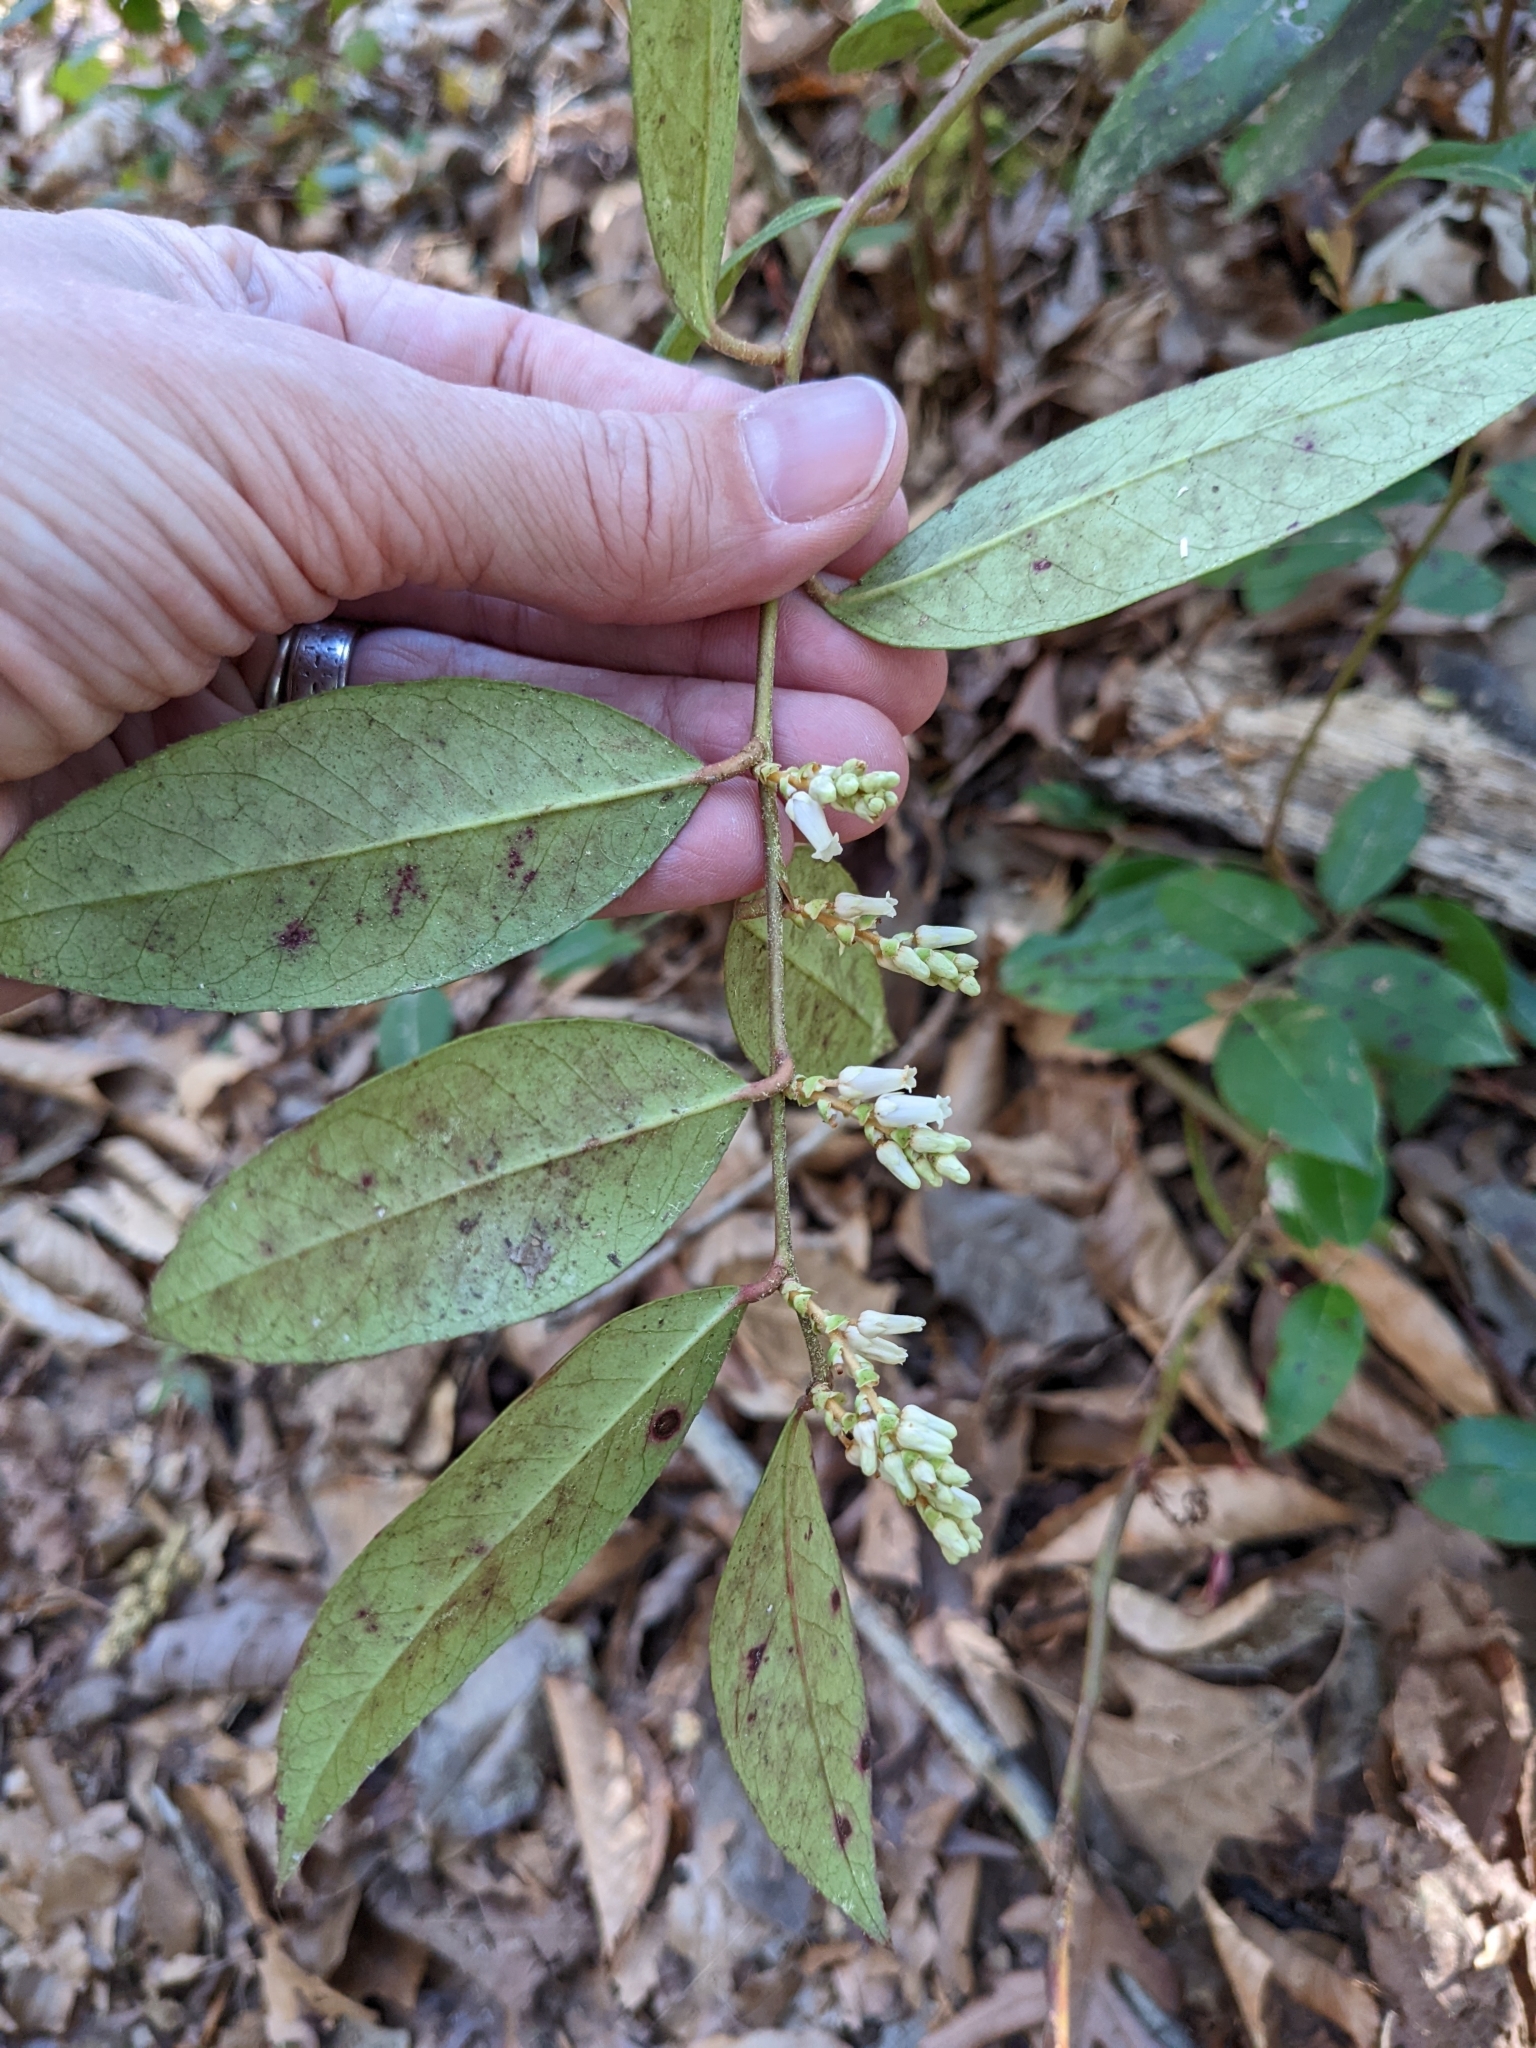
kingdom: Plantae
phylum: Tracheophyta
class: Magnoliopsida
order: Ericales
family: Ericaceae
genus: Leucothoe
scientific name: Leucothoe axillaris
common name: Leucothoe
